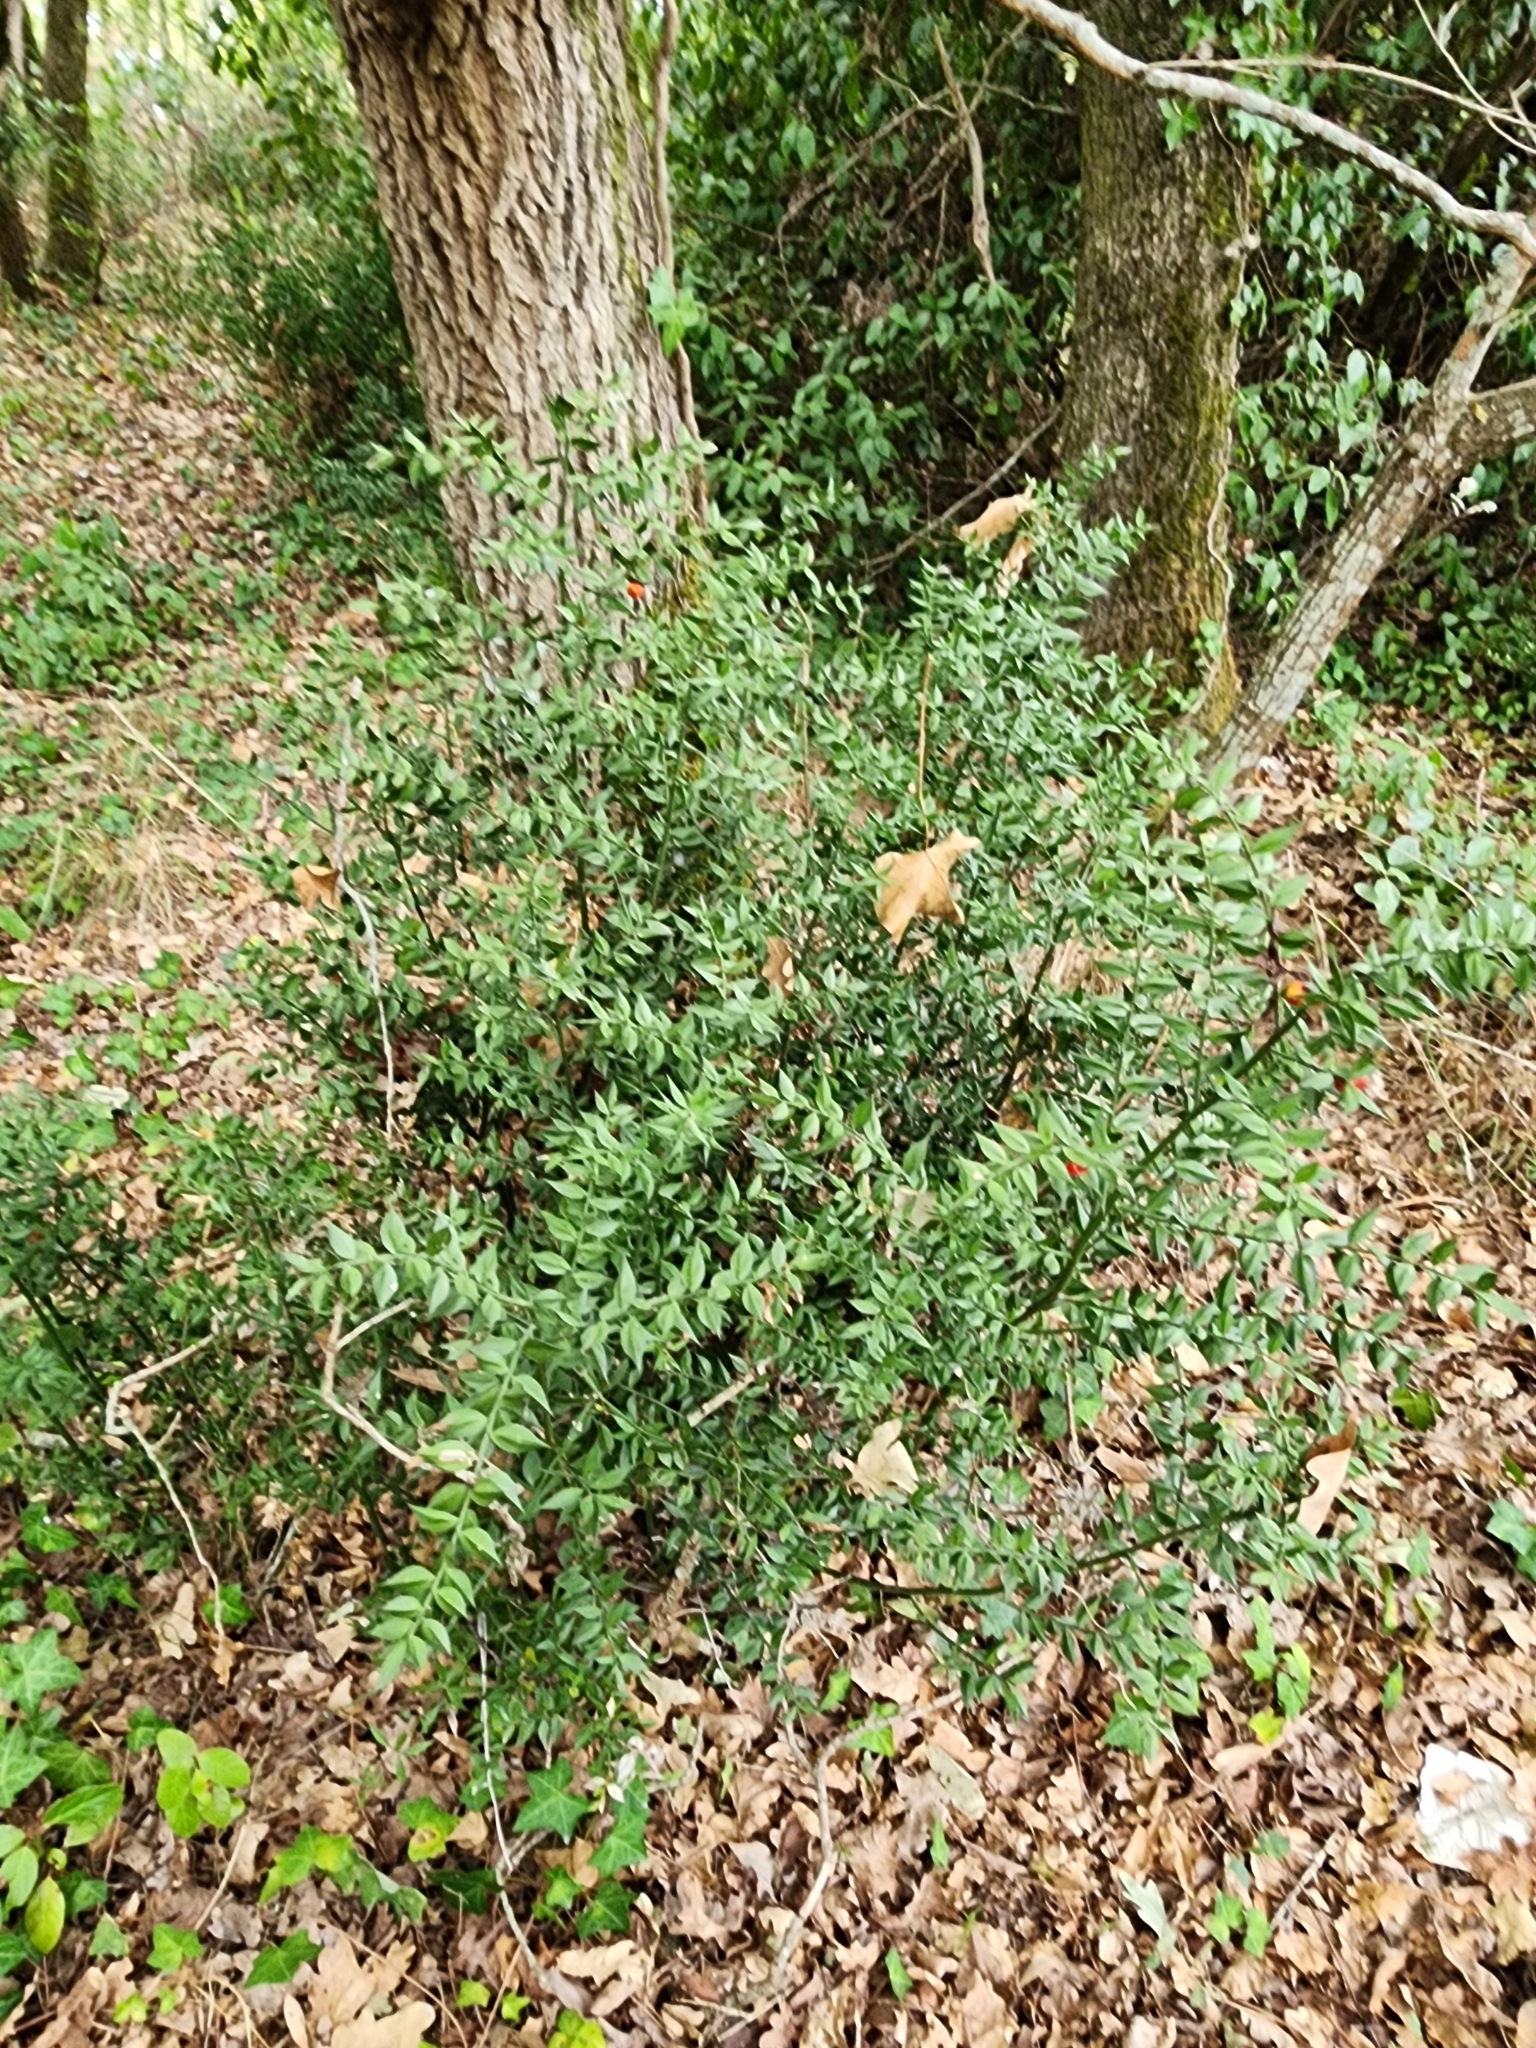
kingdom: Plantae
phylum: Tracheophyta
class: Liliopsida
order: Asparagales
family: Asparagaceae
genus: Ruscus
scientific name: Ruscus aculeatus
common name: Butcher's-broom
